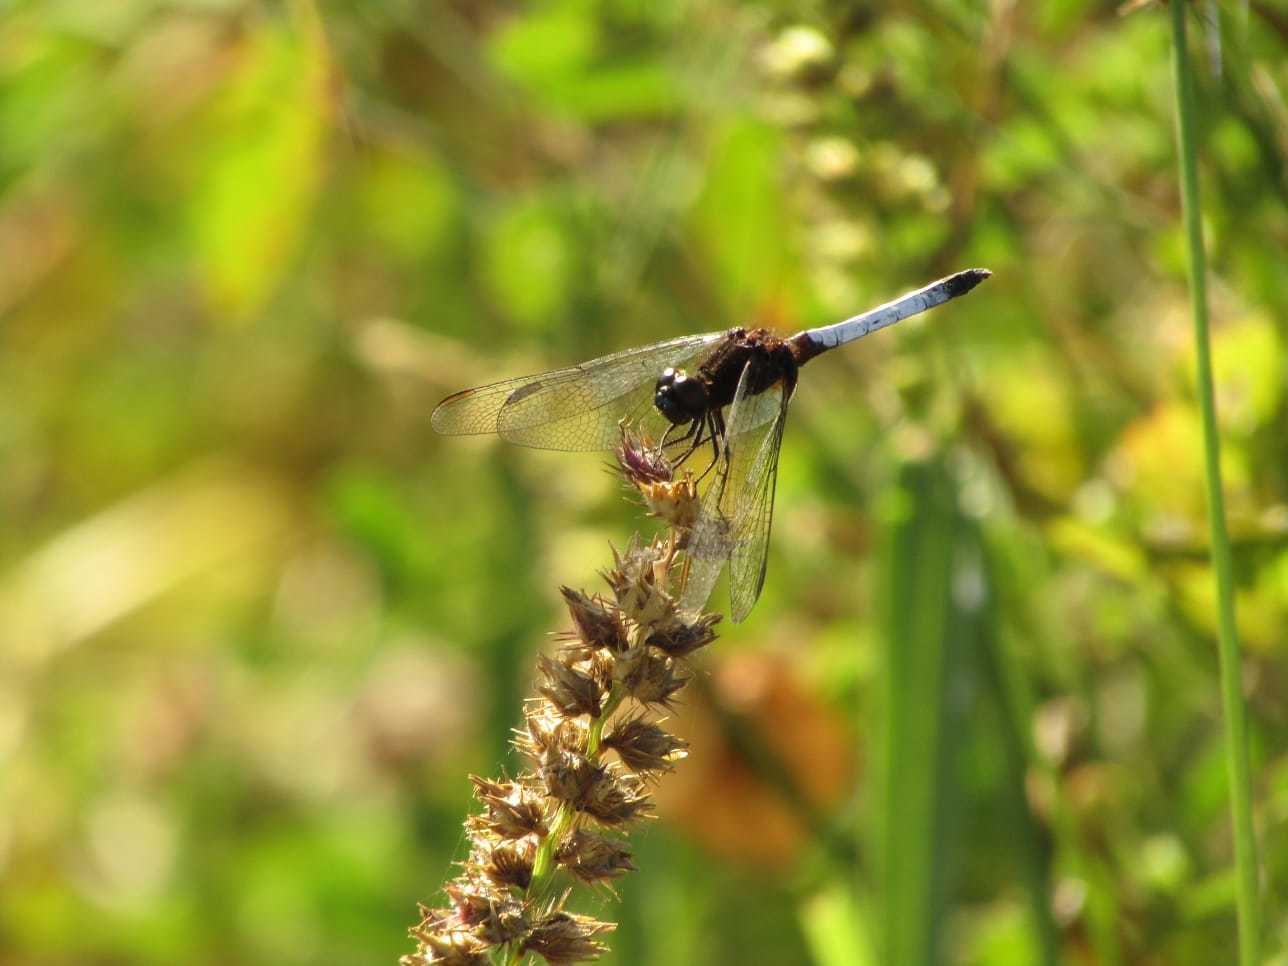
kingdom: Animalia
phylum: Arthropoda
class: Insecta
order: Odonata
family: Libellulidae
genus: Erythrodiplax
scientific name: Erythrodiplax fusca
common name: Red-faced dragonlet
